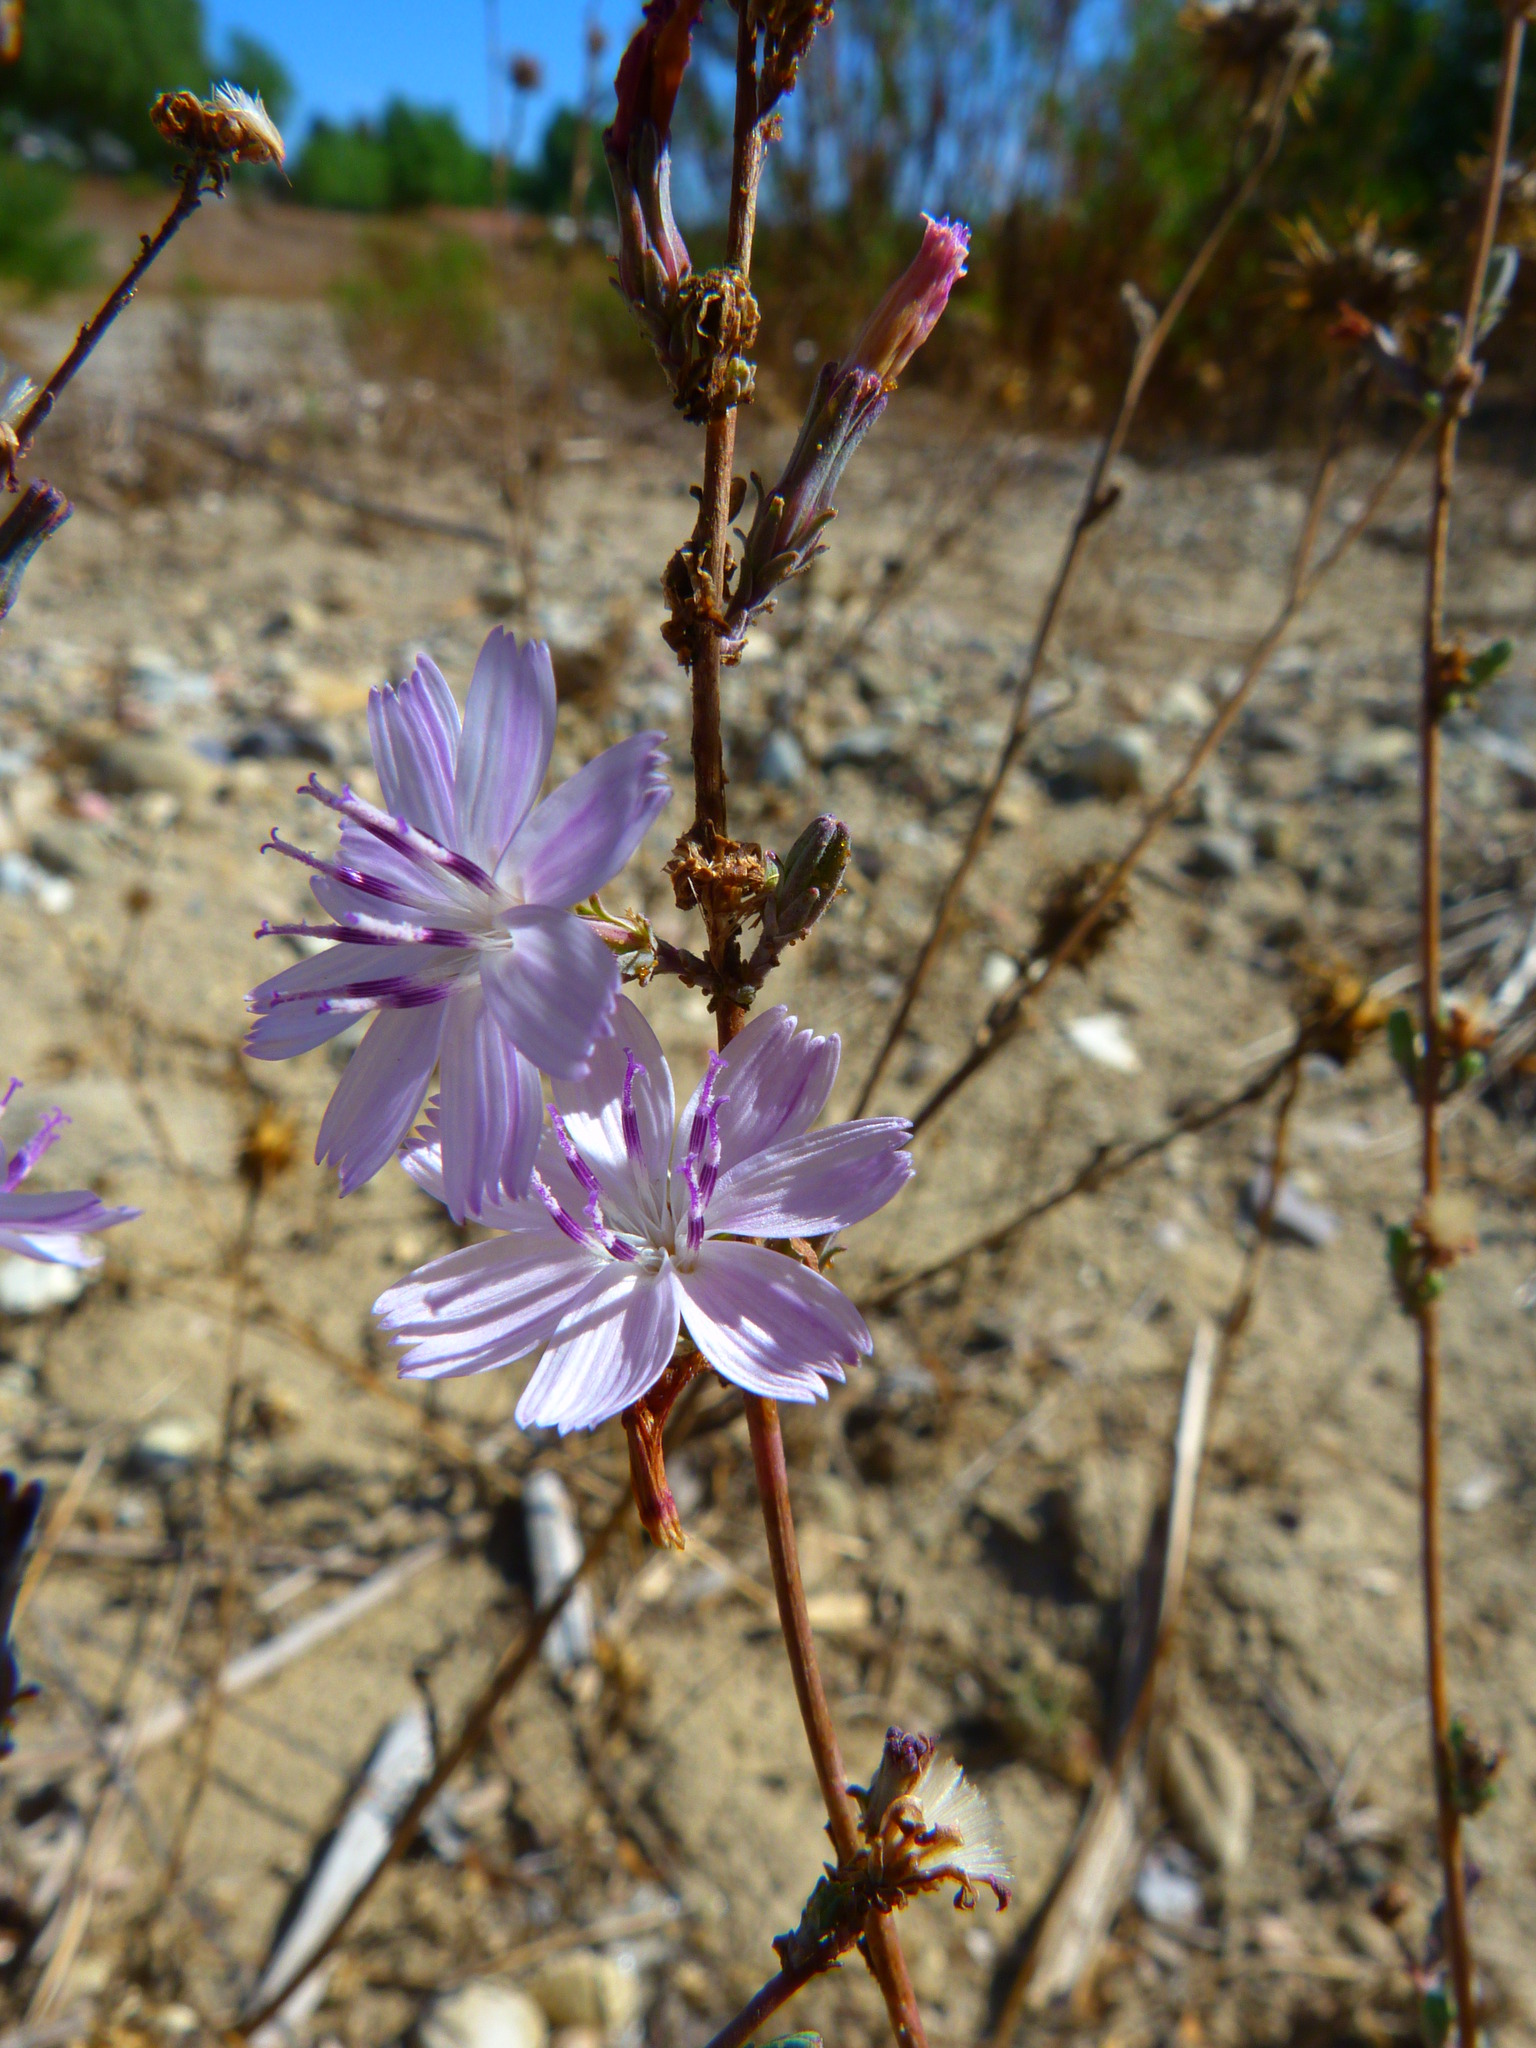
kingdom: Plantae
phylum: Tracheophyta
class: Magnoliopsida
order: Asterales
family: Asteraceae
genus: Stephanomeria
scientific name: Stephanomeria virgata
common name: Virgate wirelettuce
